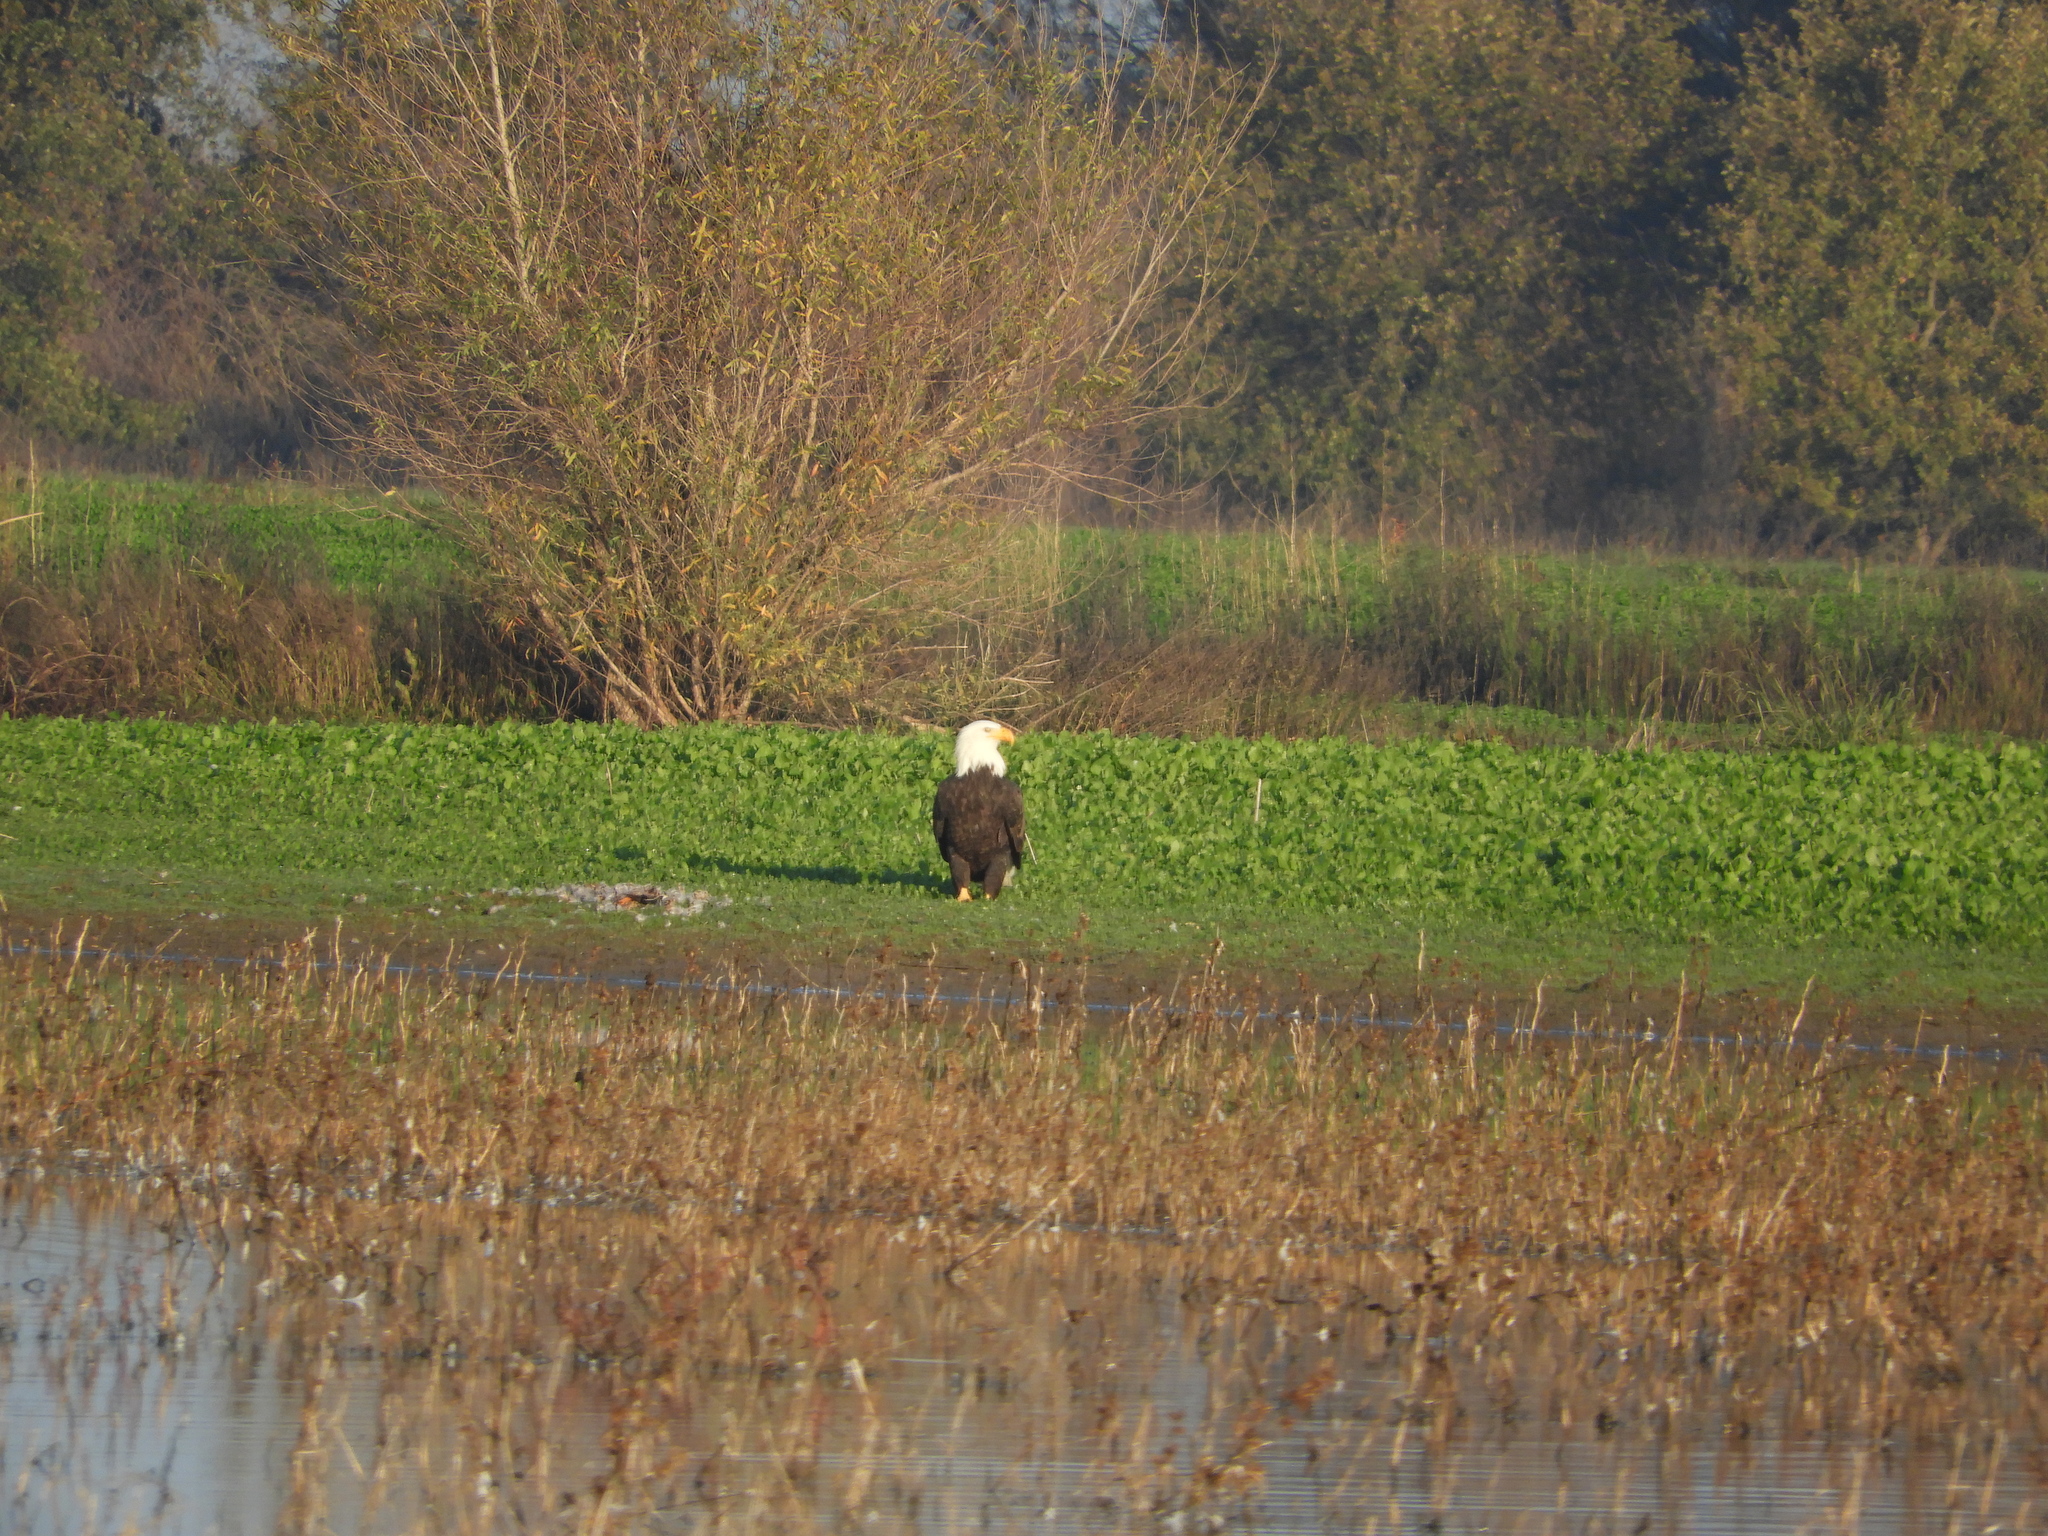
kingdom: Animalia
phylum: Chordata
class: Aves
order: Accipitriformes
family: Accipitridae
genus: Haliaeetus
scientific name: Haliaeetus leucocephalus
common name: Bald eagle
